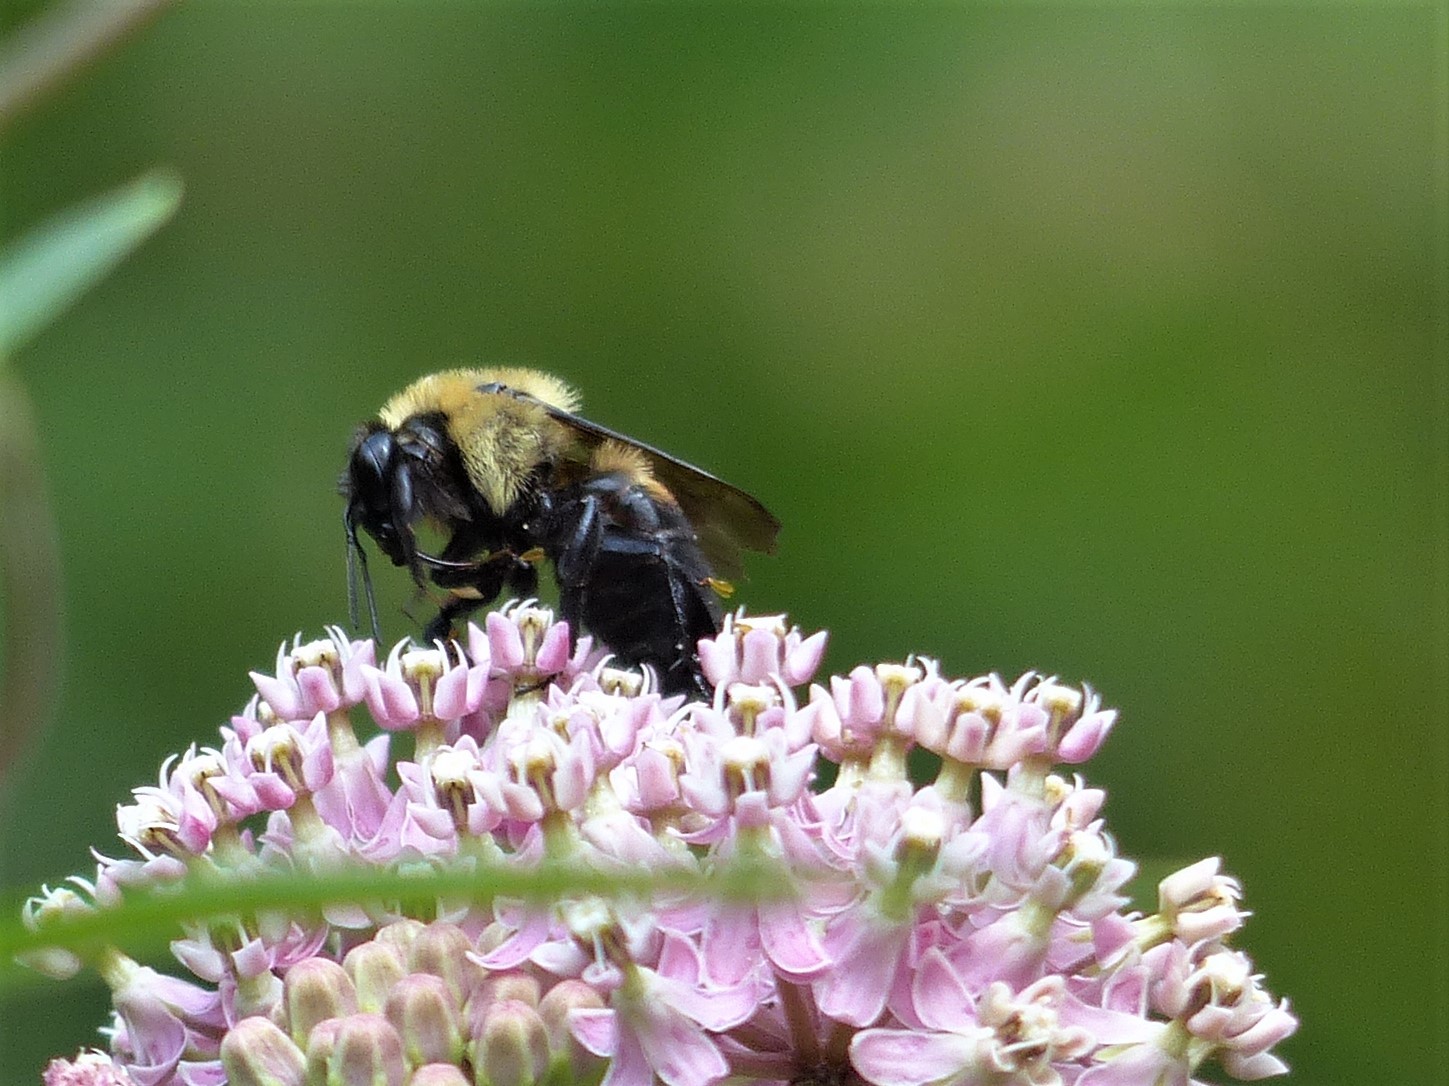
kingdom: Animalia
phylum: Arthropoda
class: Insecta
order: Hymenoptera
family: Apidae
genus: Bombus
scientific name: Bombus griseocollis
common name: Brown-belted bumble bee
